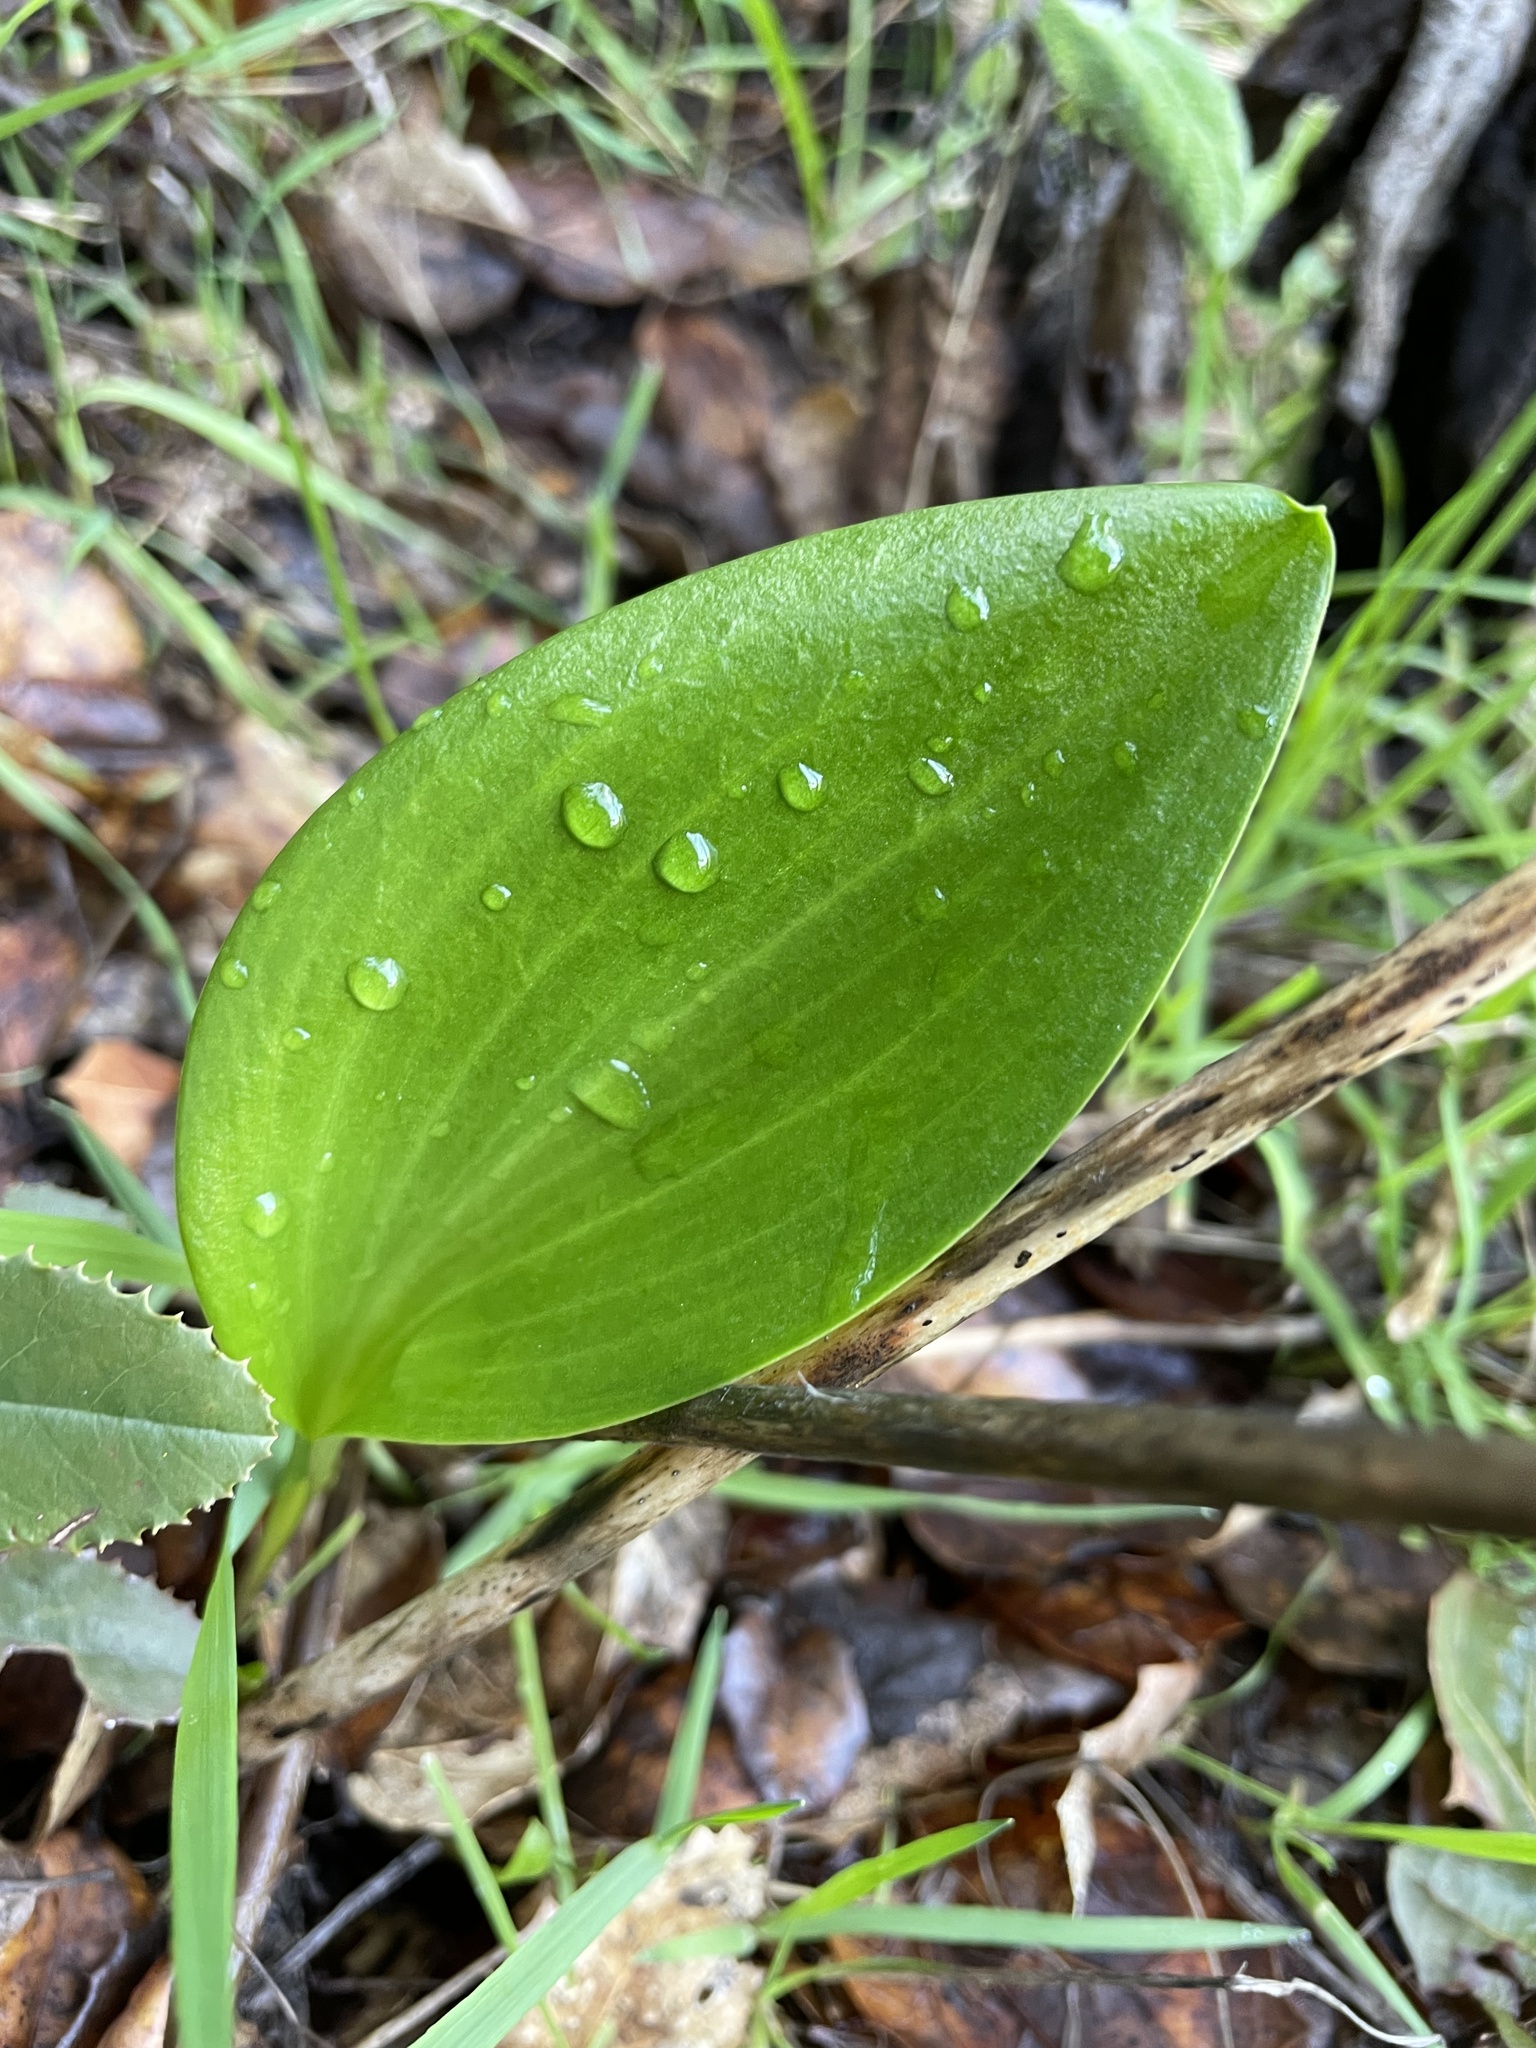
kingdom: Plantae
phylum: Tracheophyta
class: Liliopsida
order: Liliales
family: Liliaceae
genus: Fritillaria
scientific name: Fritillaria affinis
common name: Ojai fritillary
